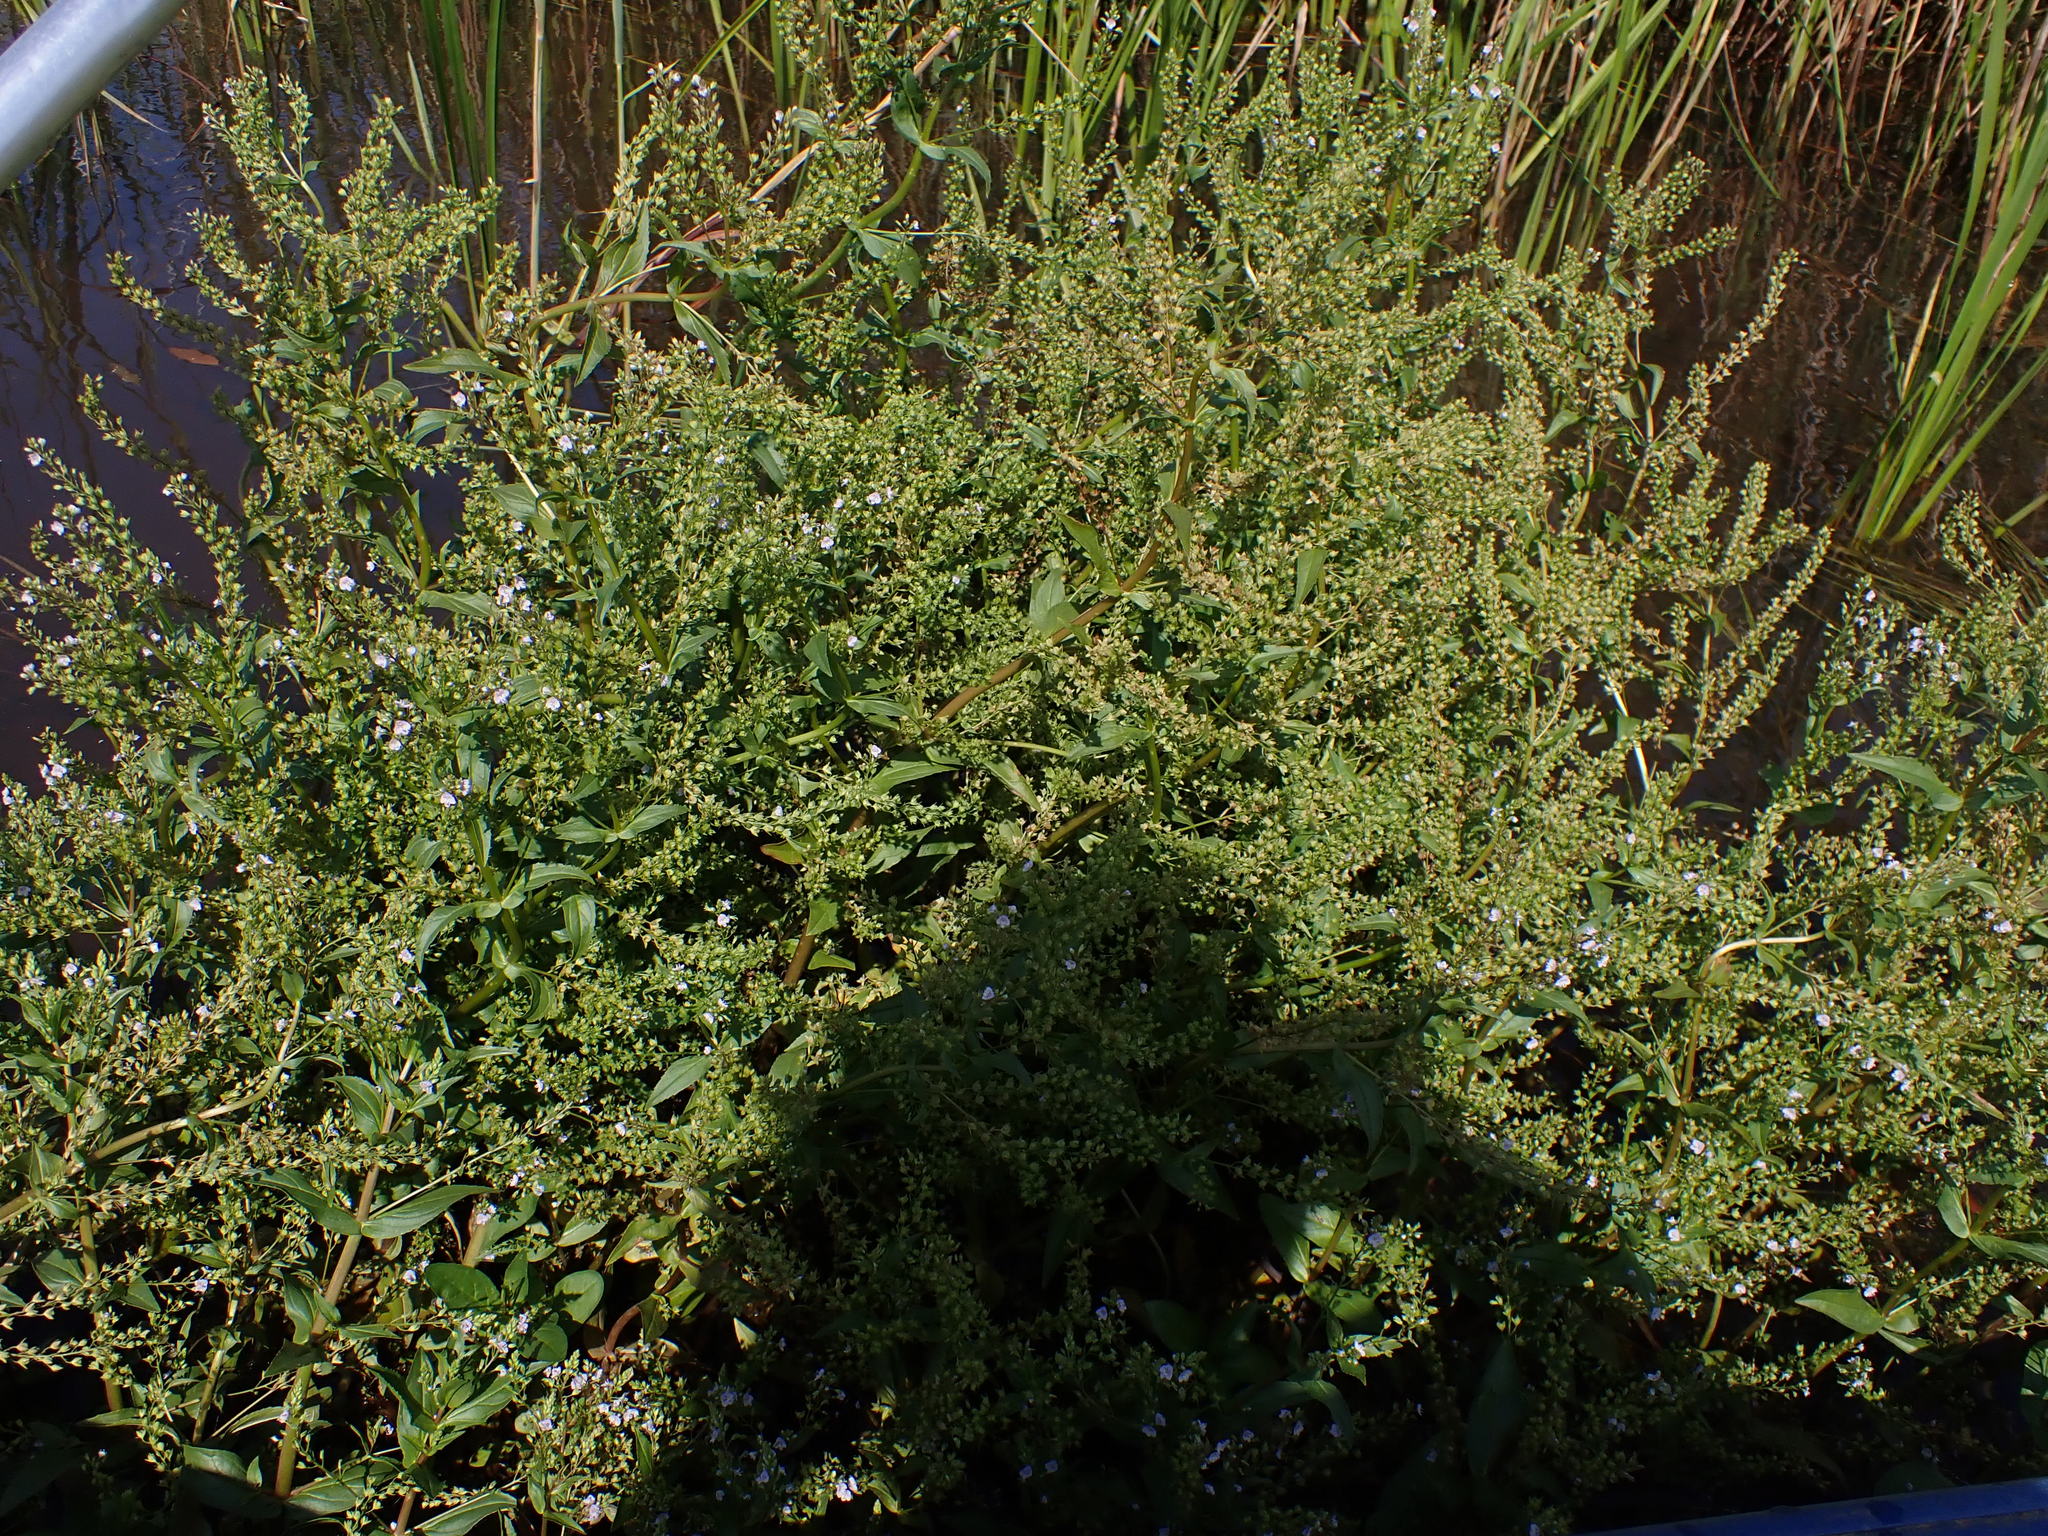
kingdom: Plantae
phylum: Tracheophyta
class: Magnoliopsida
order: Lamiales
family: Plantaginaceae
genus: Veronica
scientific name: Veronica anagallis-aquatica
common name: Water speedwell
